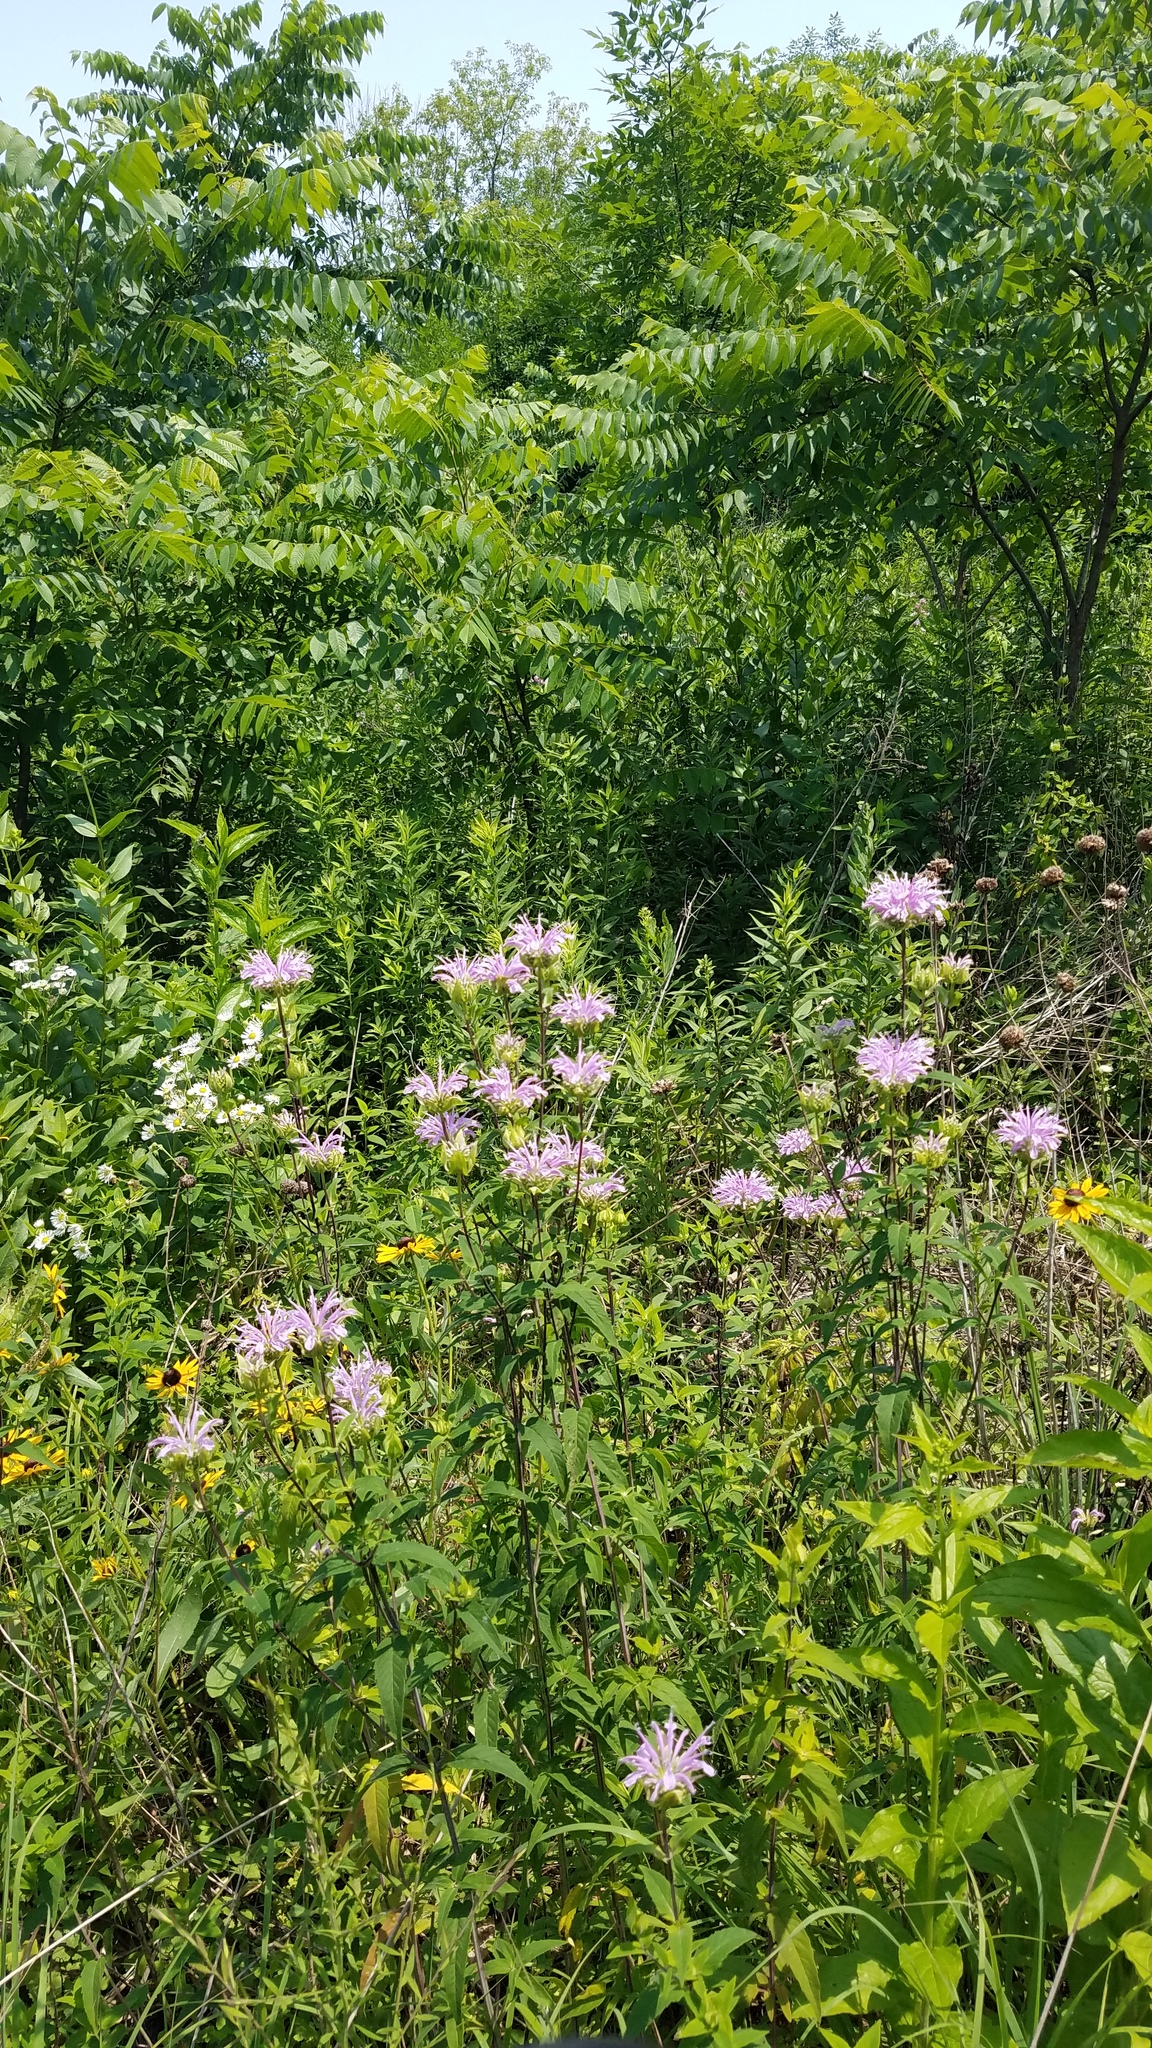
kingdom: Plantae
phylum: Tracheophyta
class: Magnoliopsida
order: Lamiales
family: Lamiaceae
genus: Monarda
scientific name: Monarda fistulosa
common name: Purple beebalm
